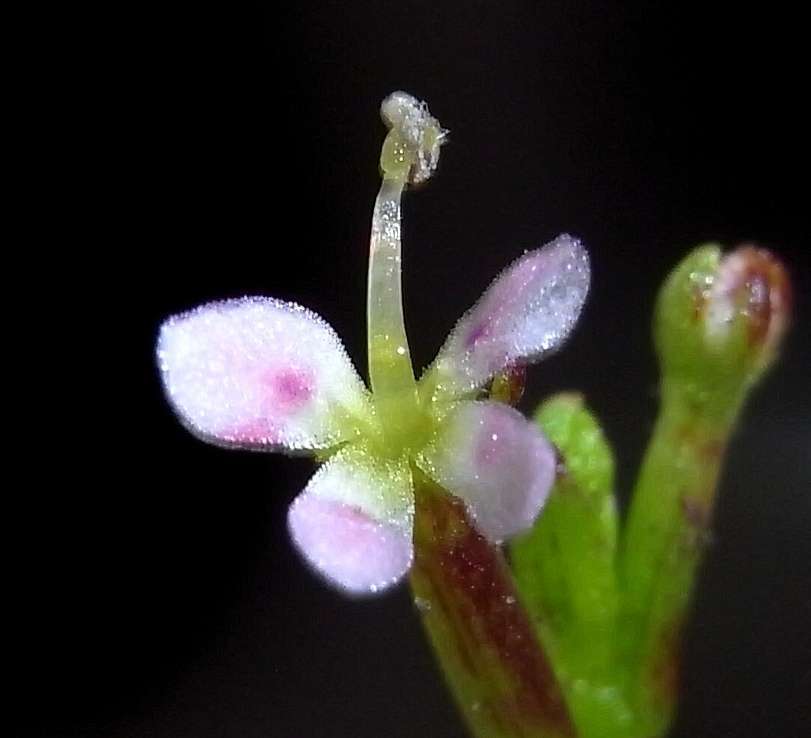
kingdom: Plantae
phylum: Tracheophyta
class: Magnoliopsida
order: Asterales
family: Stylidiaceae
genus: Stylidium
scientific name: Stylidium despectum
